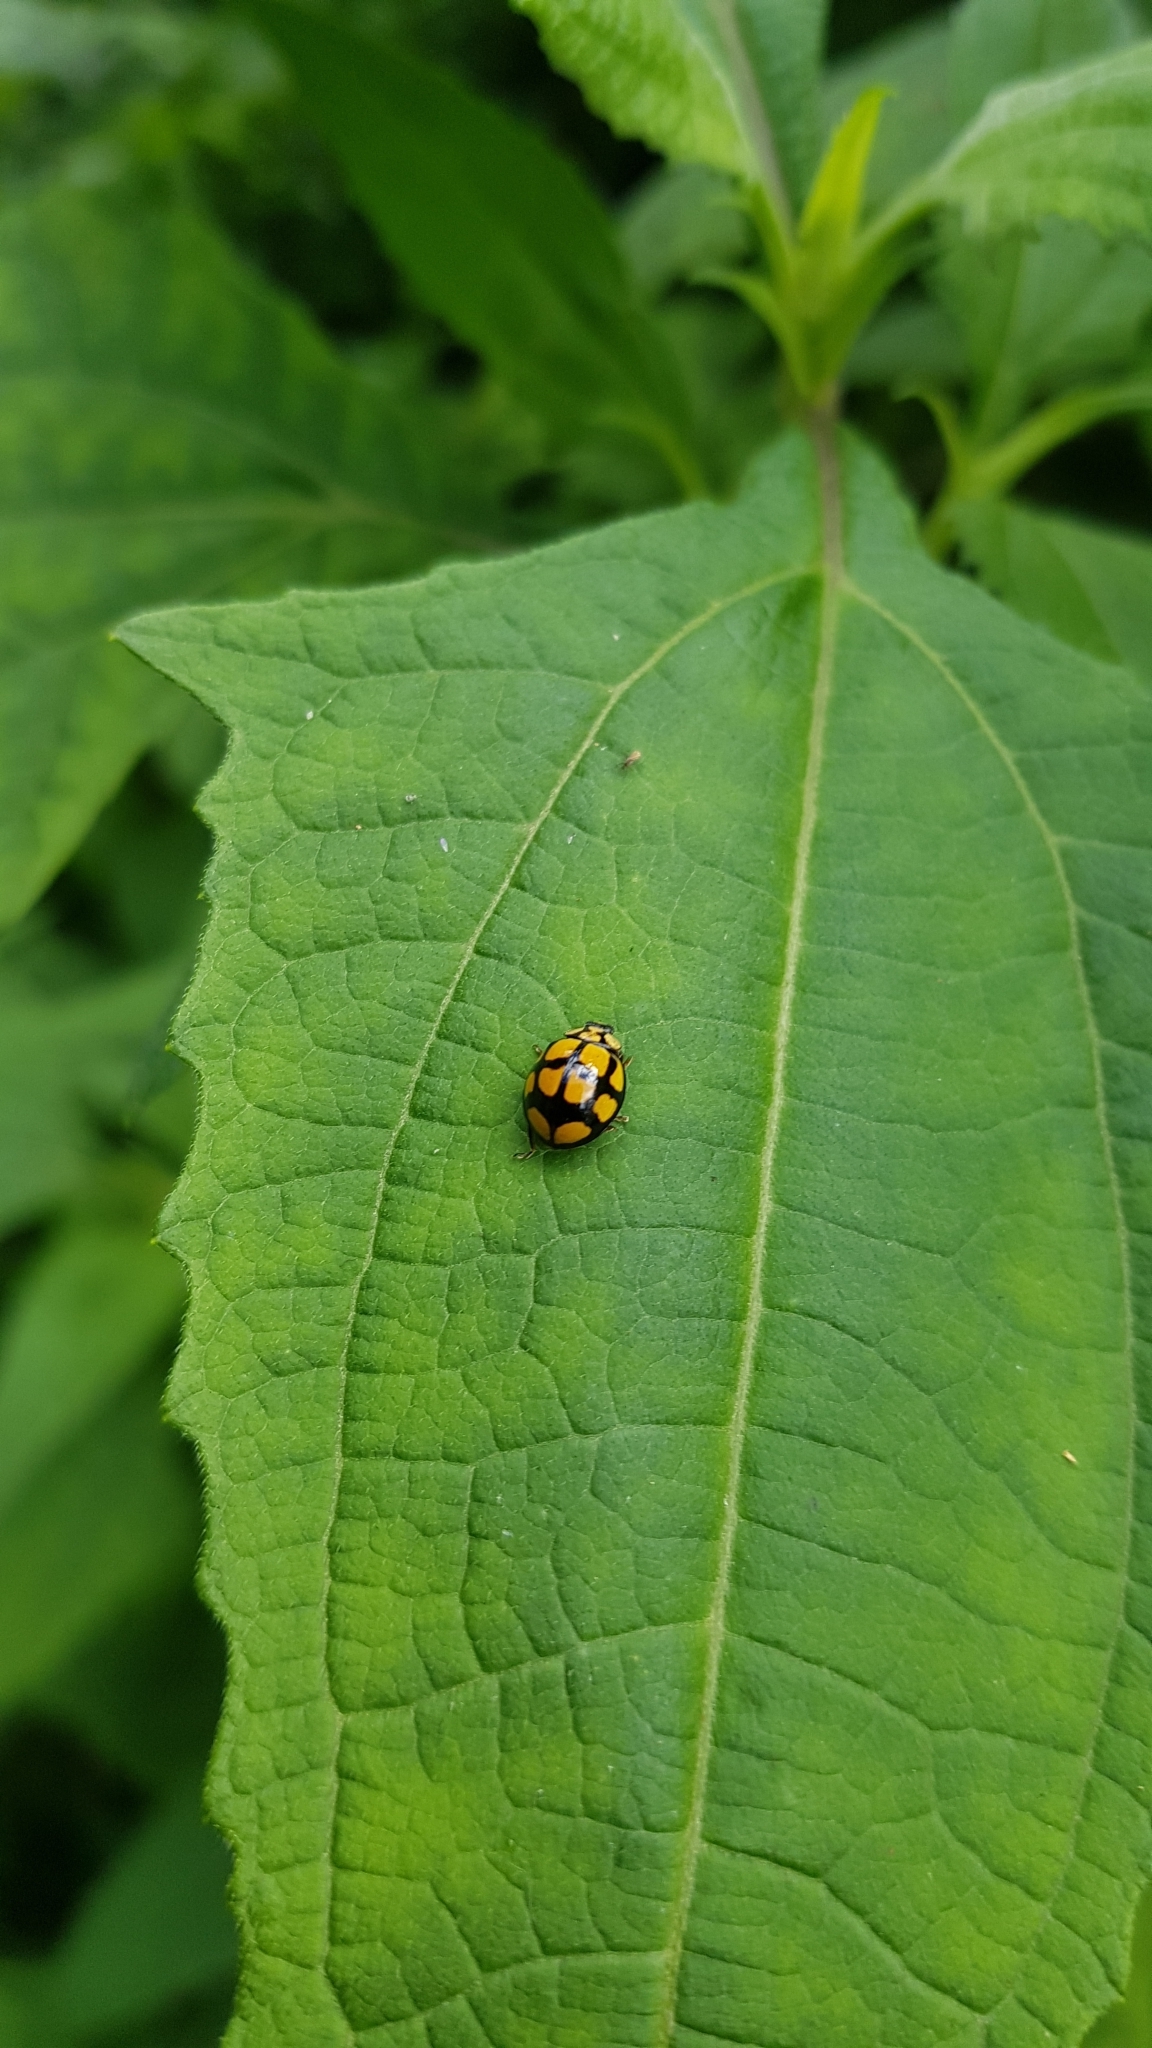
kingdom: Animalia
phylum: Arthropoda
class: Insecta
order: Coleoptera
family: Coccinellidae
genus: Harmonia
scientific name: Harmonia
